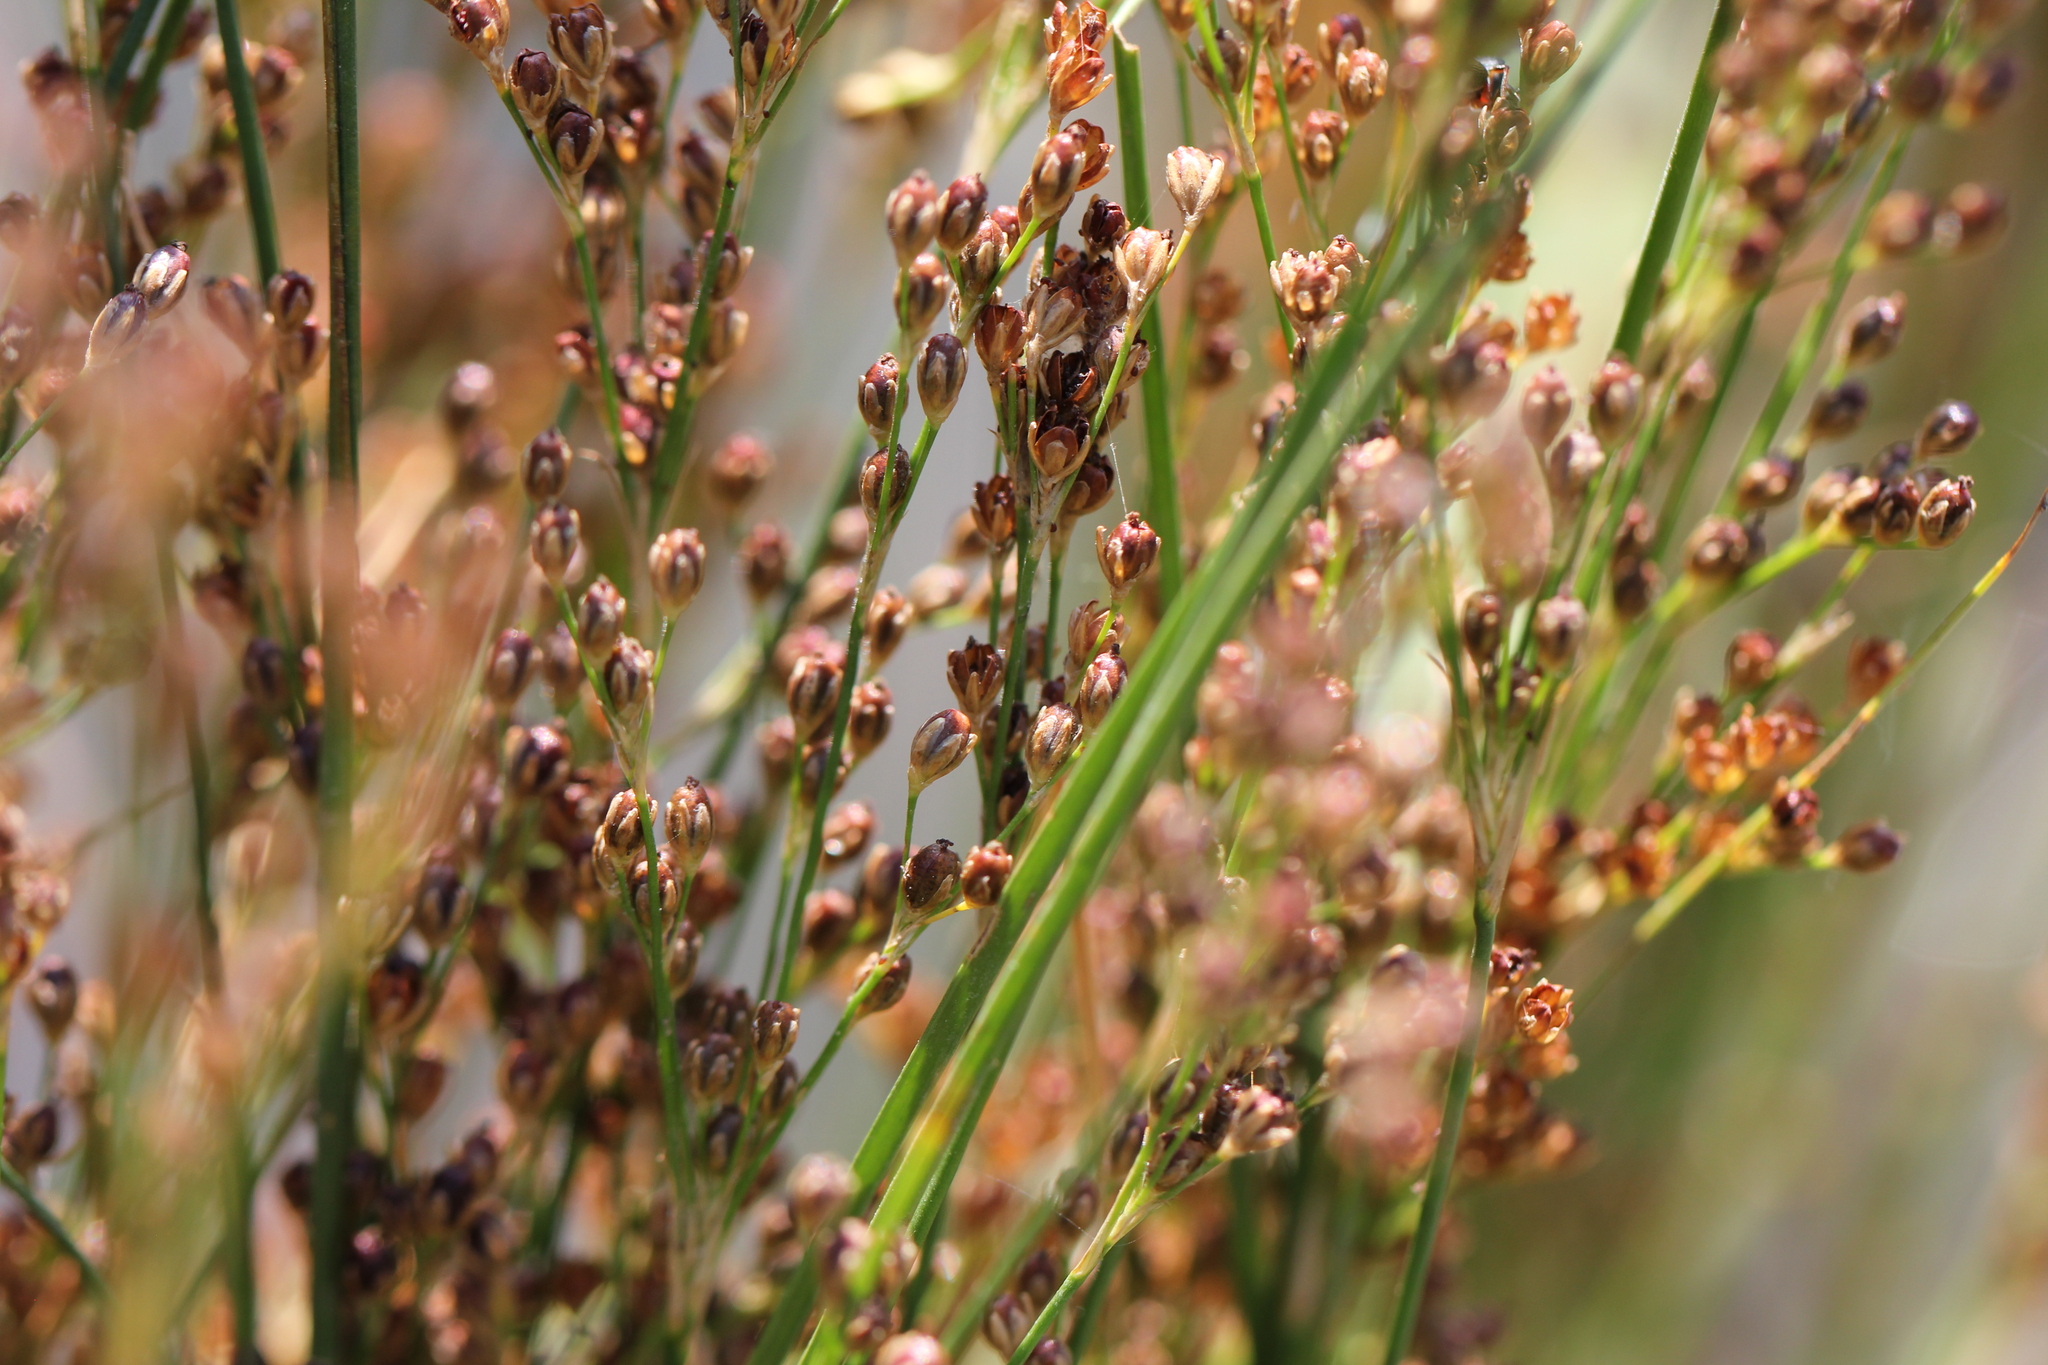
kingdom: Plantae
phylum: Tracheophyta
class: Liliopsida
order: Poales
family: Juncaceae
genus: Juncus
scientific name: Juncus compressus
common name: Round-fruited rush
